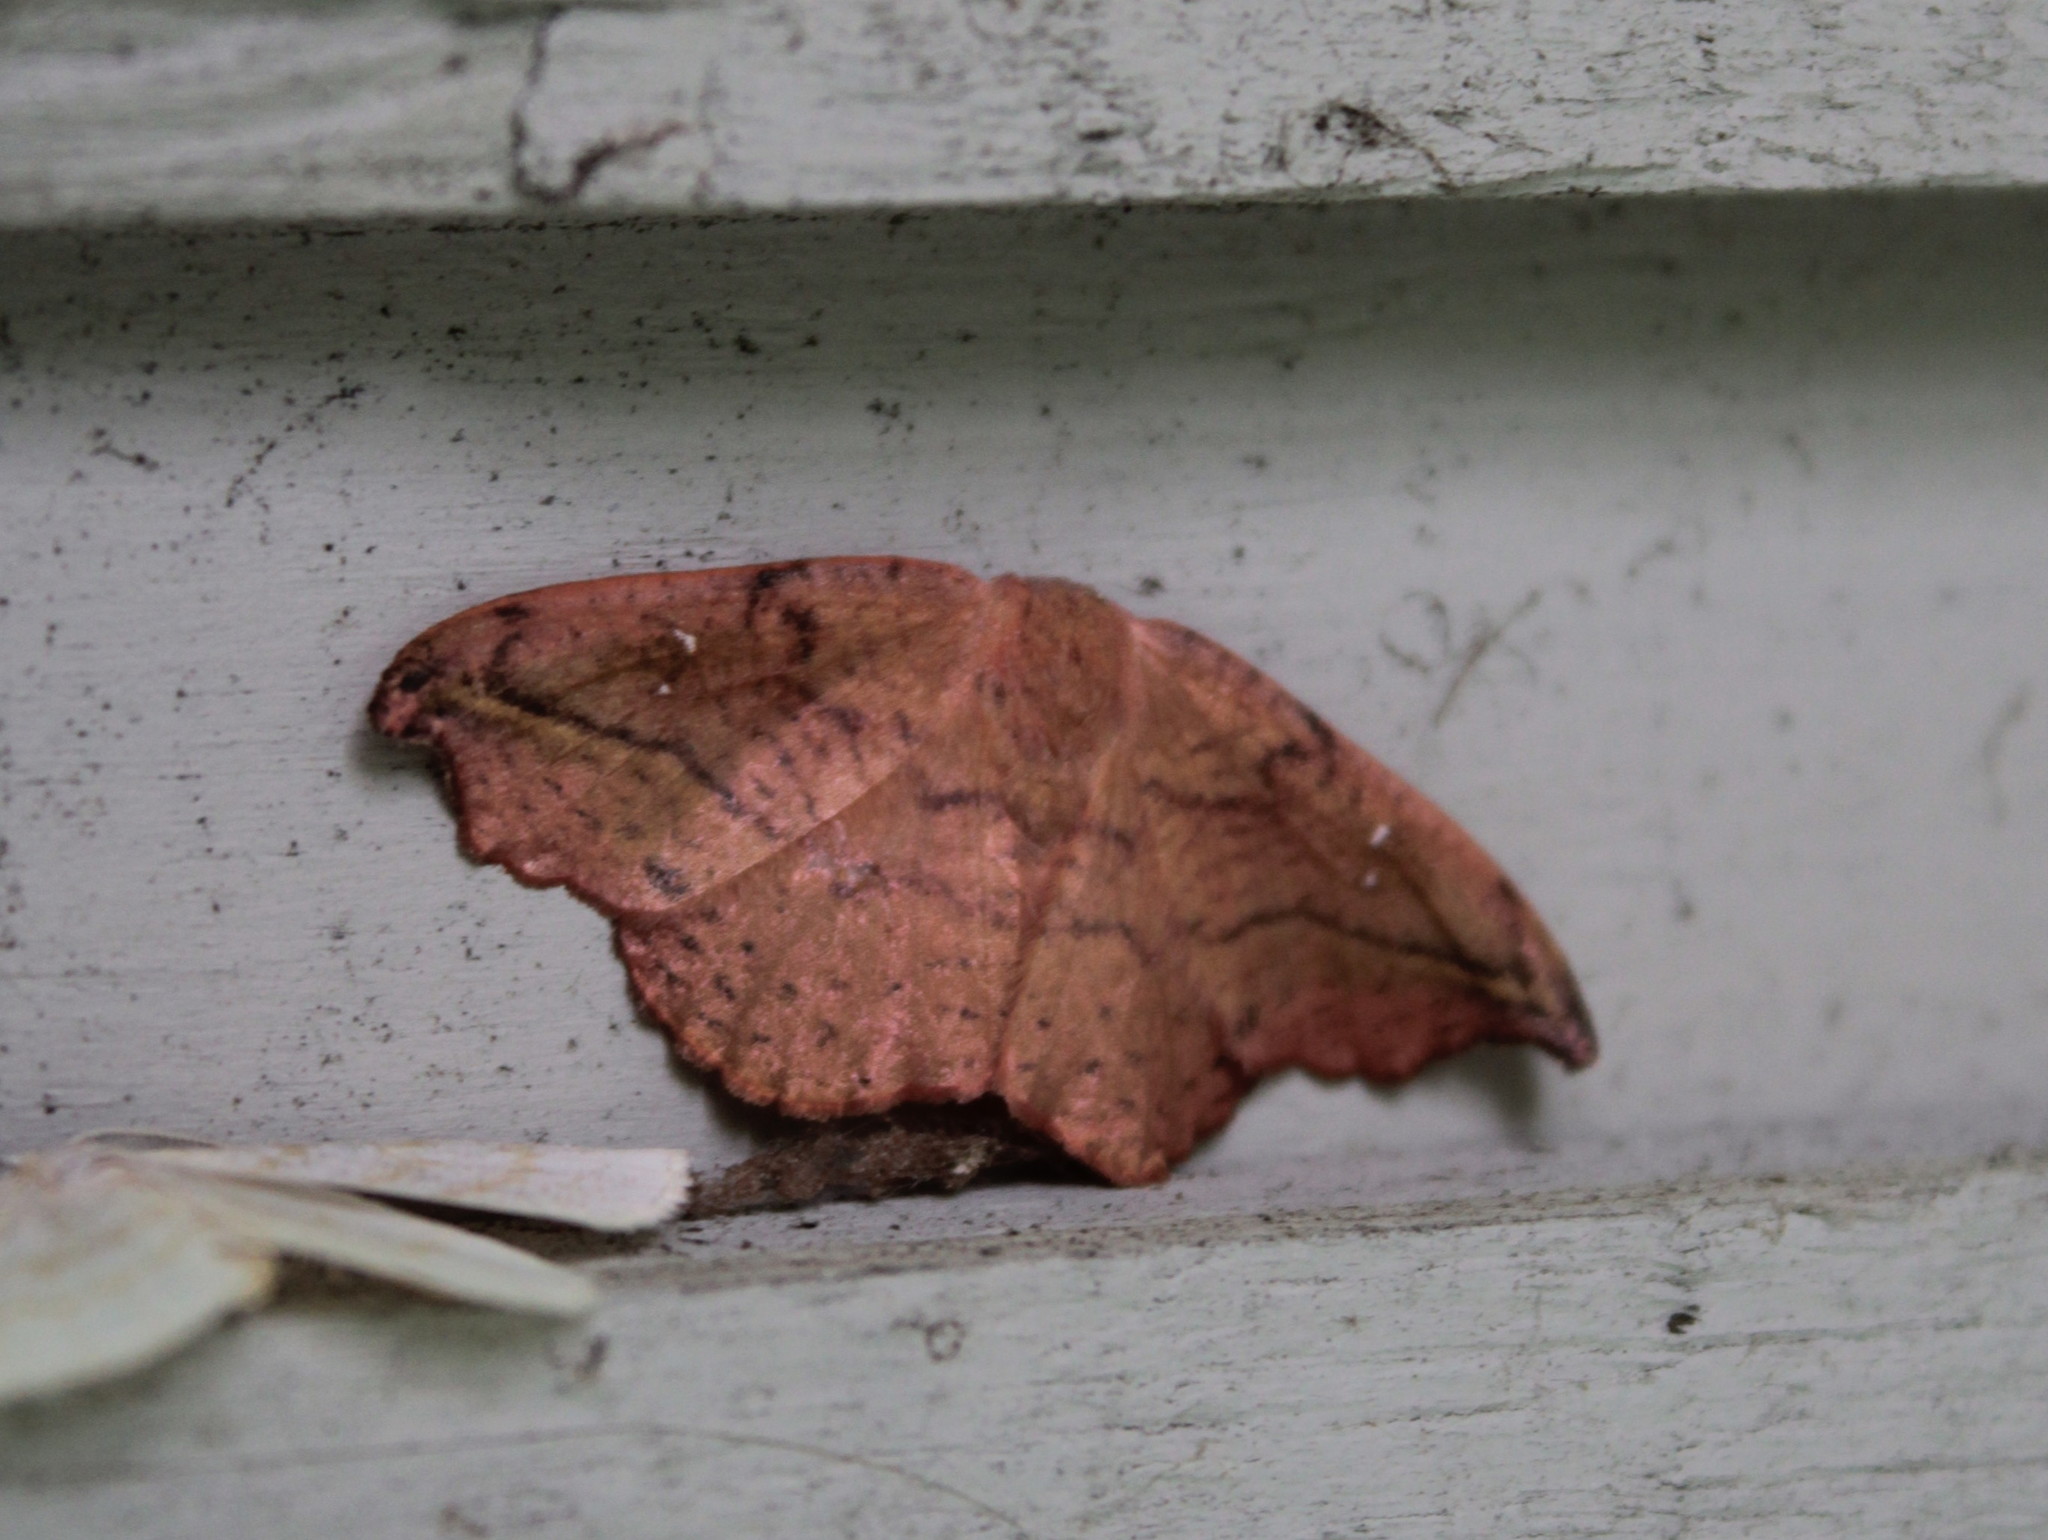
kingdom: Animalia
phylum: Arthropoda
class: Insecta
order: Lepidoptera
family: Drepanidae
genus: Oreta
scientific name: Oreta rosea
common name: Rose hooktip
